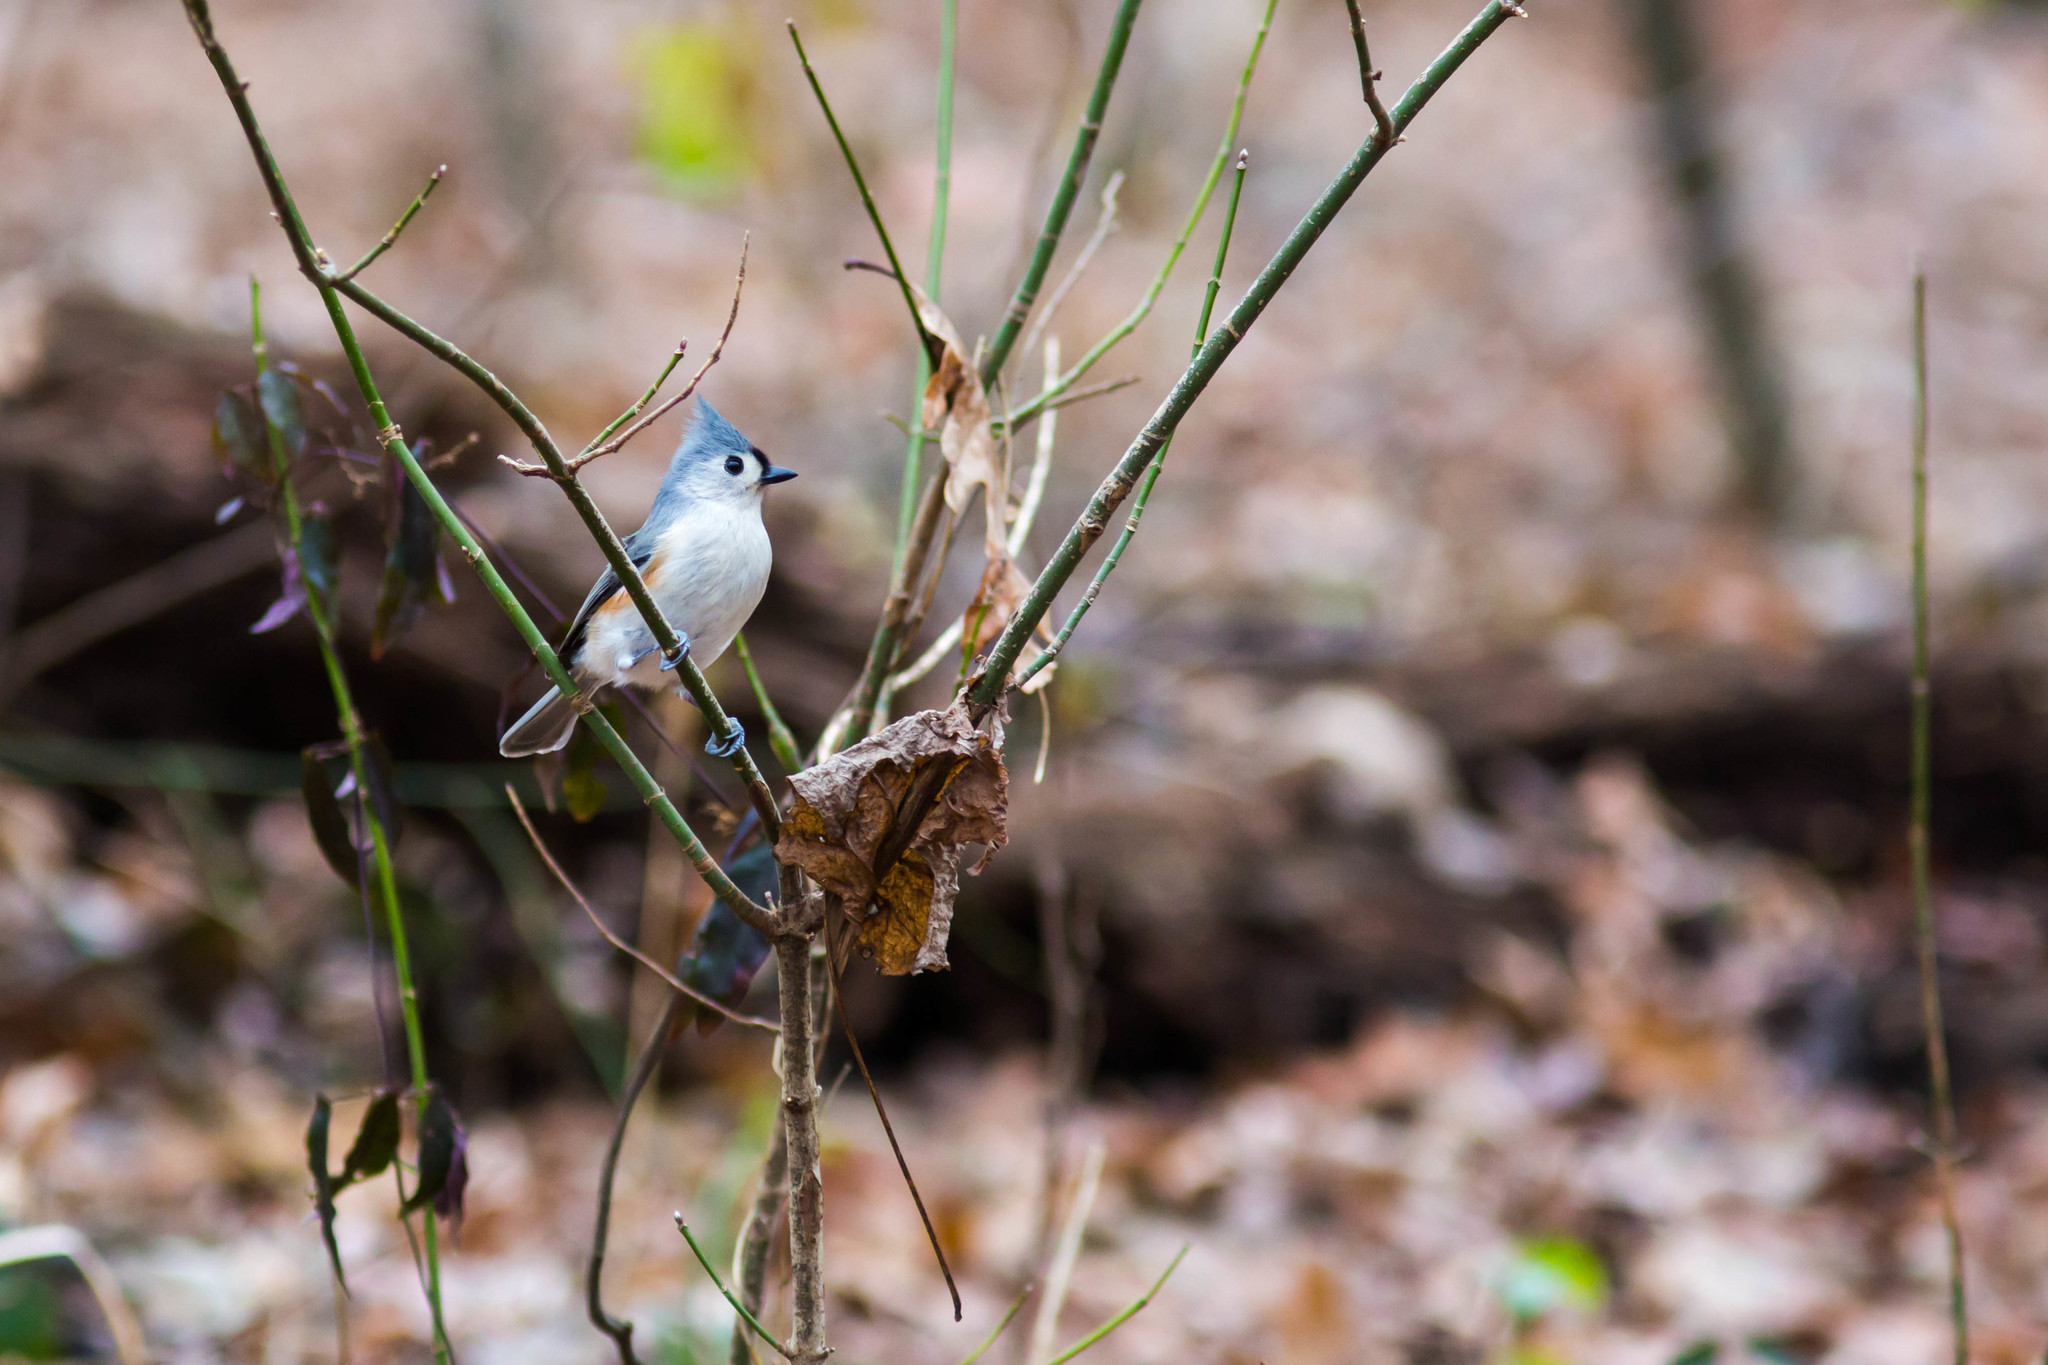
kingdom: Animalia
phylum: Chordata
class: Aves
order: Passeriformes
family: Paridae
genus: Baeolophus
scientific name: Baeolophus bicolor
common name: Tufted titmouse
